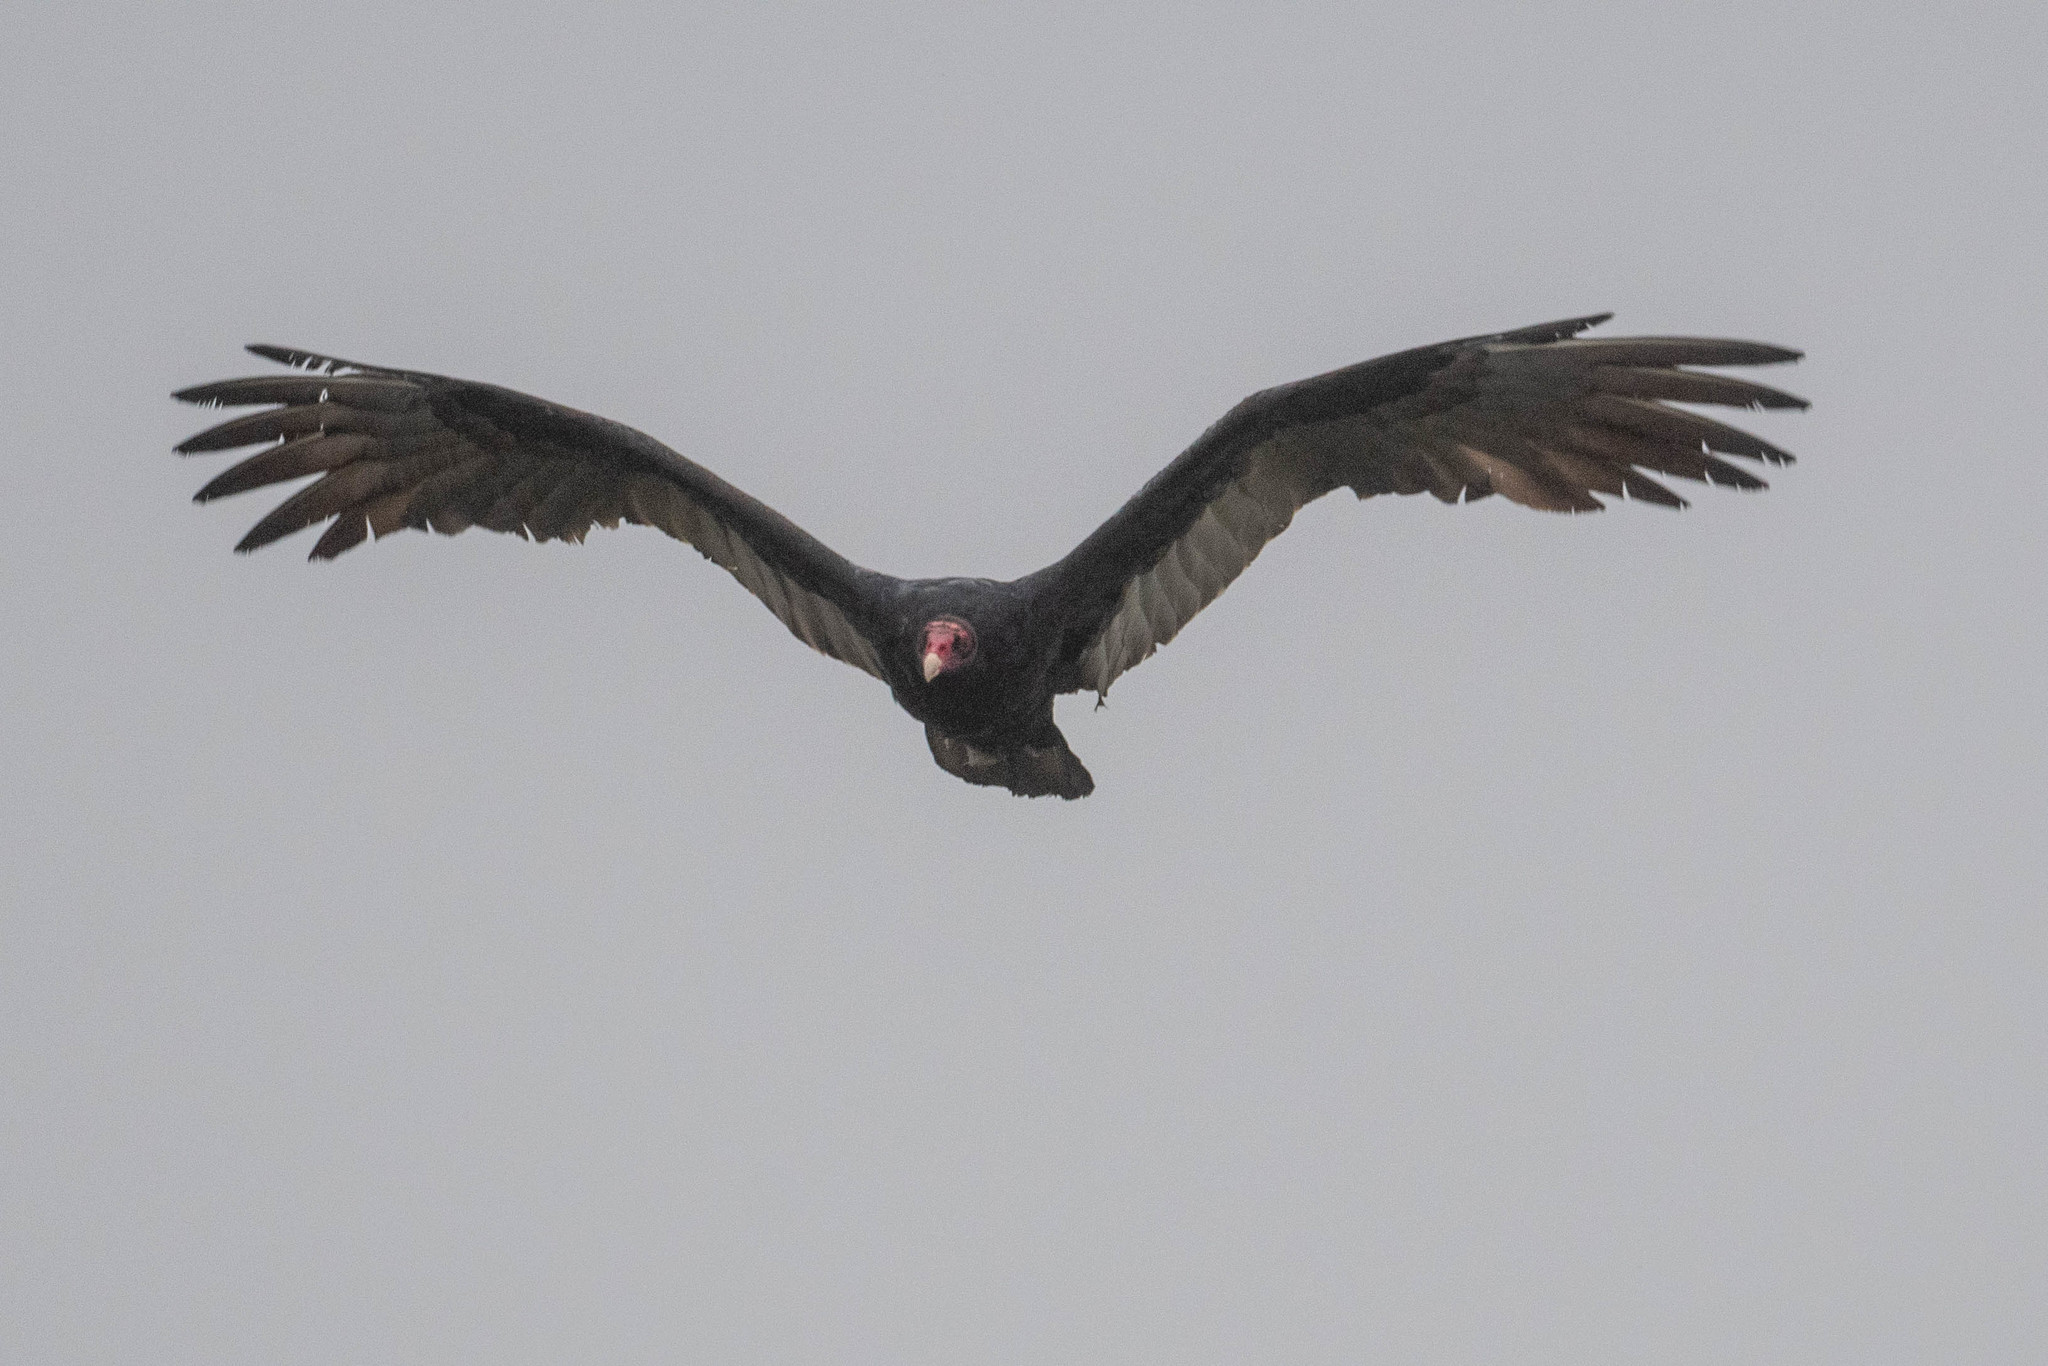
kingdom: Animalia
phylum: Chordata
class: Aves
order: Accipitriformes
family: Cathartidae
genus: Cathartes
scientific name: Cathartes aura
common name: Turkey vulture
